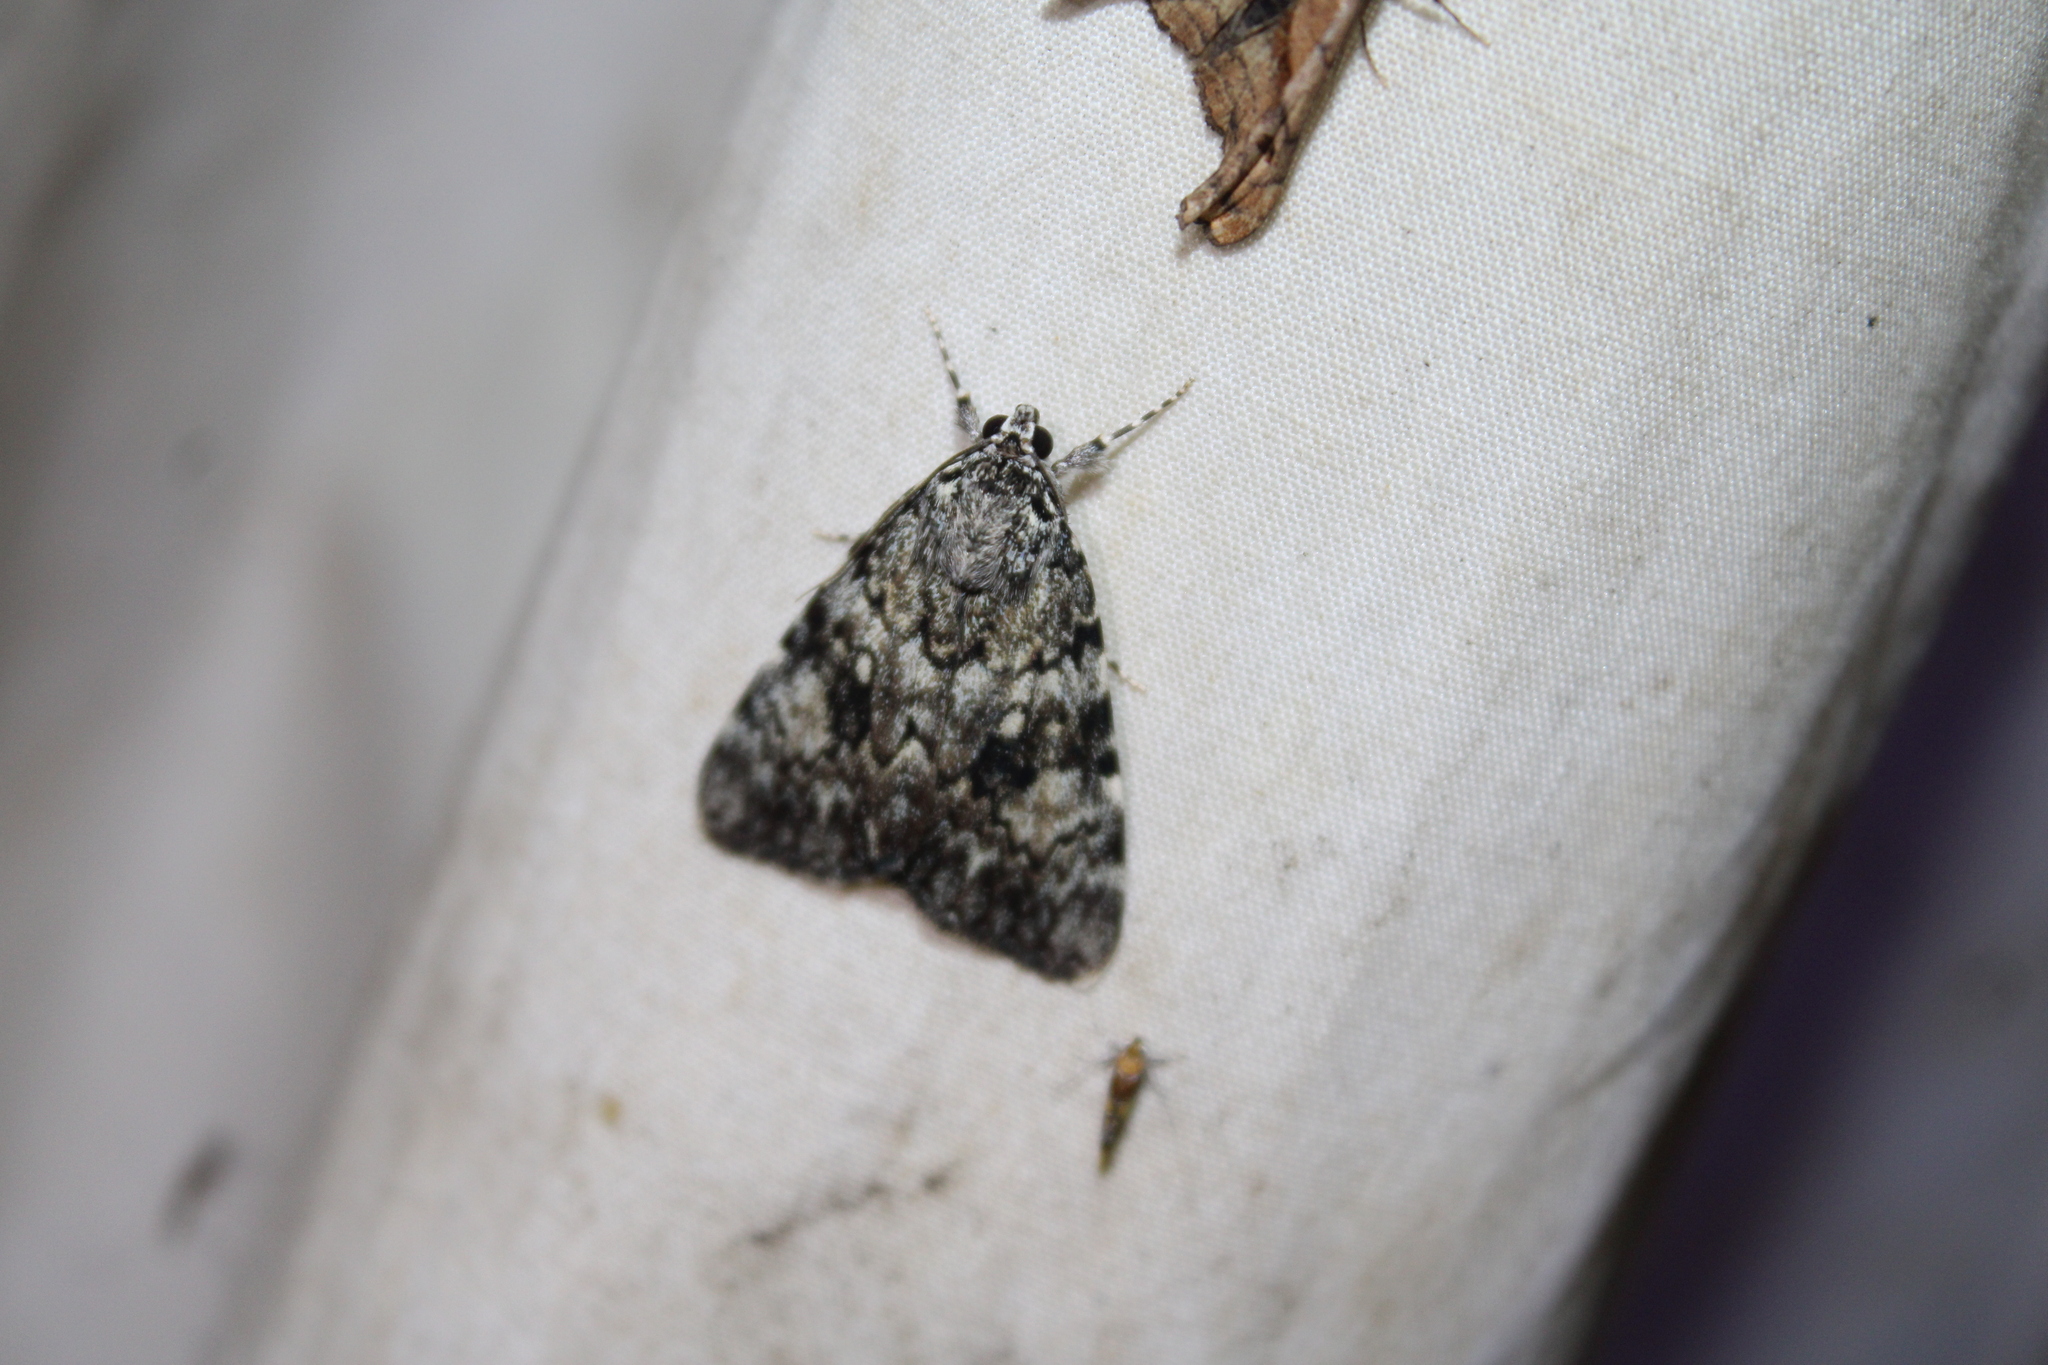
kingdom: Animalia
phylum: Arthropoda
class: Insecta
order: Lepidoptera
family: Erebidae
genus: Catocala
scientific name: Catocala lineella
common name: Little lined underwing
